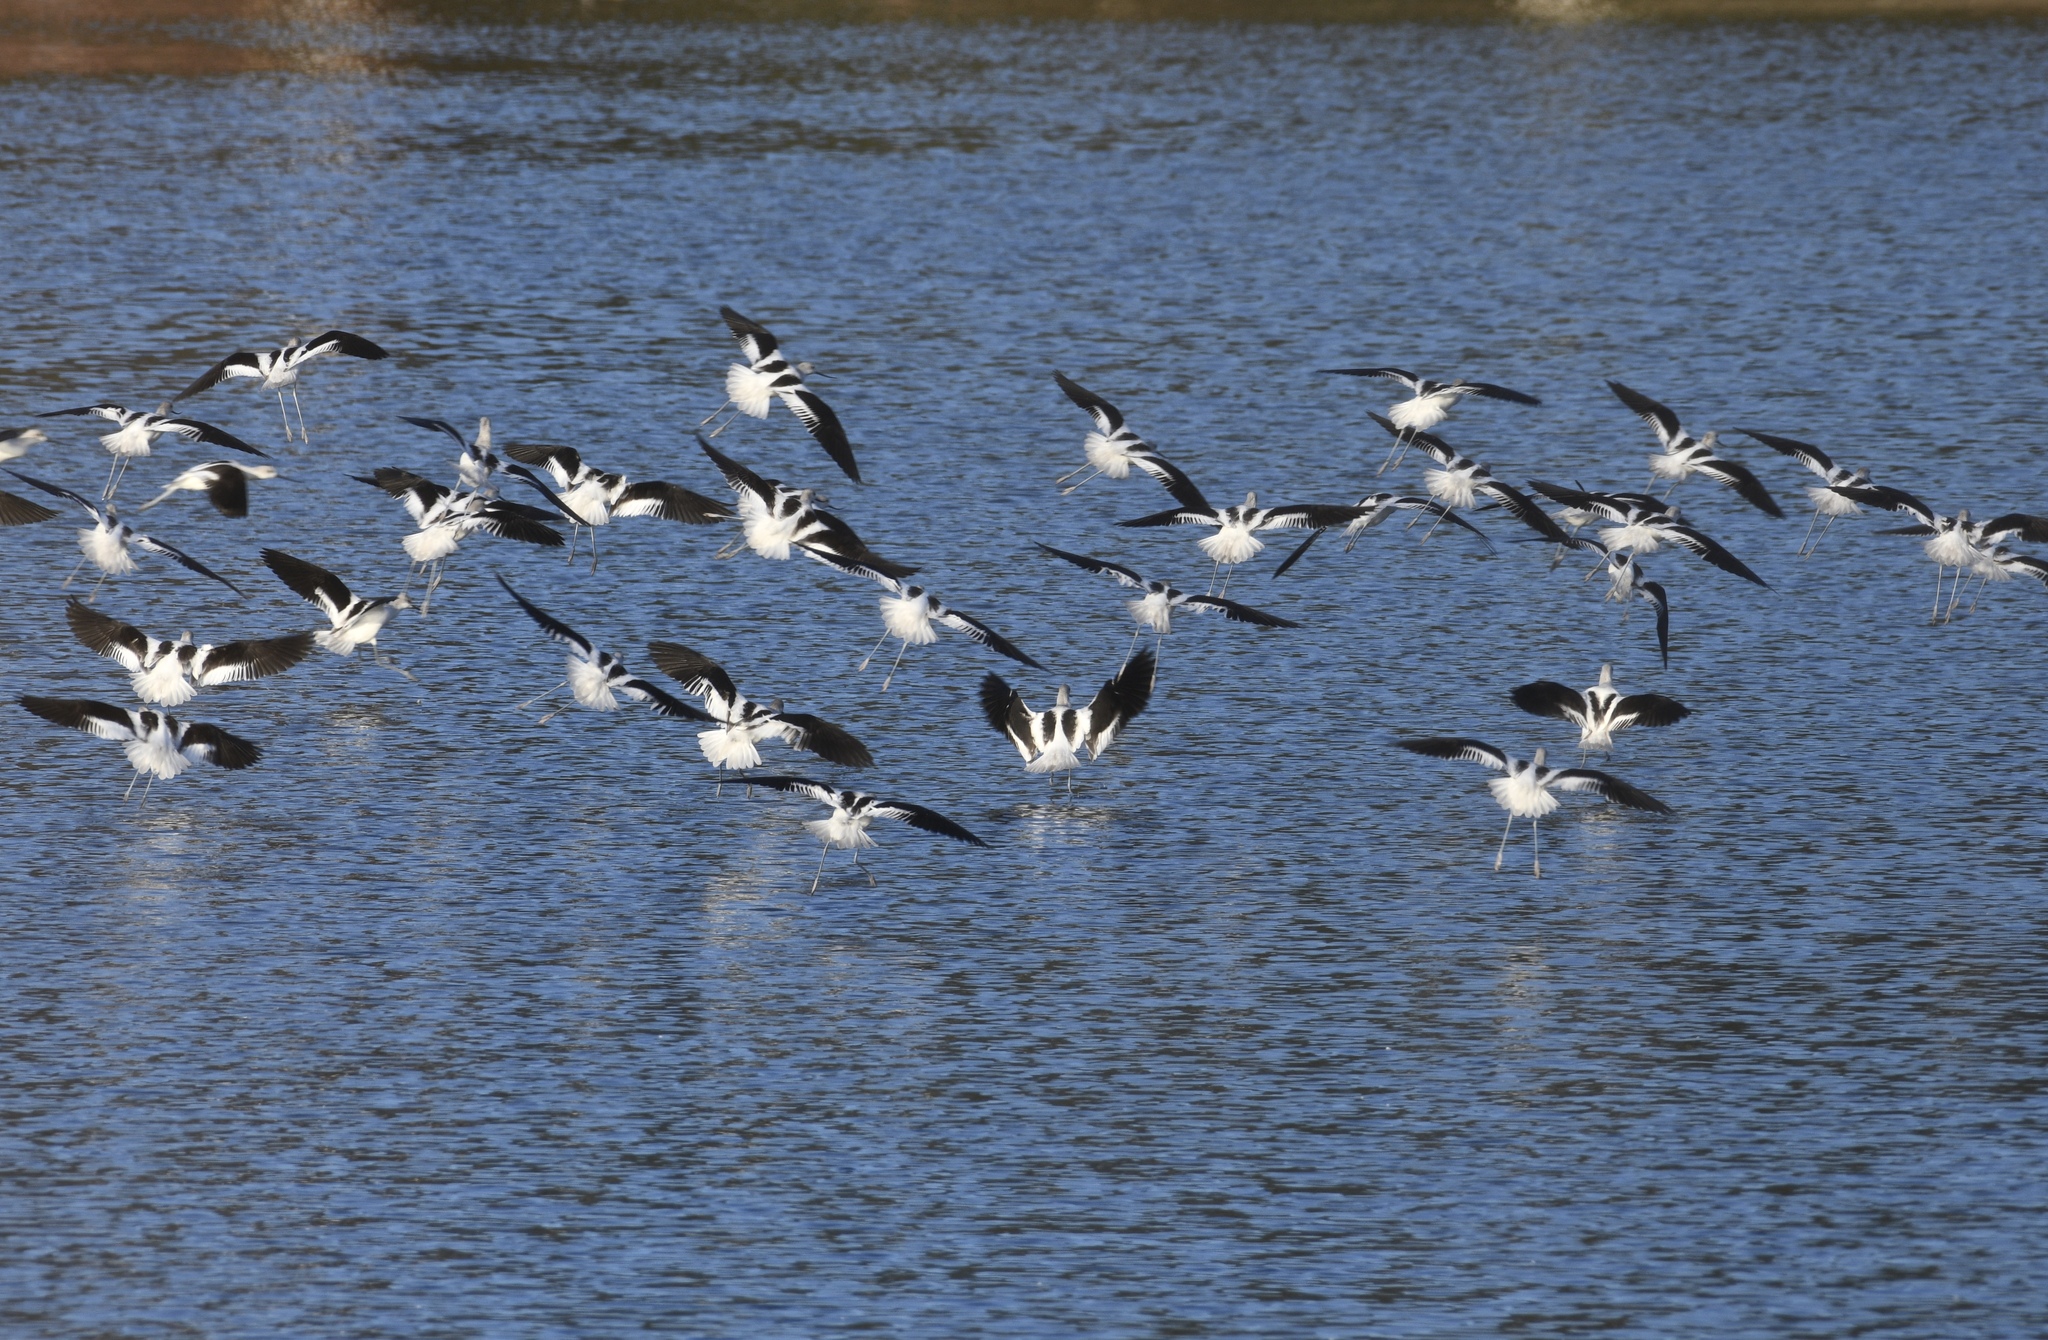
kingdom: Animalia
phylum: Chordata
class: Aves
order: Charadriiformes
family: Recurvirostridae
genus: Recurvirostra
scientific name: Recurvirostra americana
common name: American avocet
